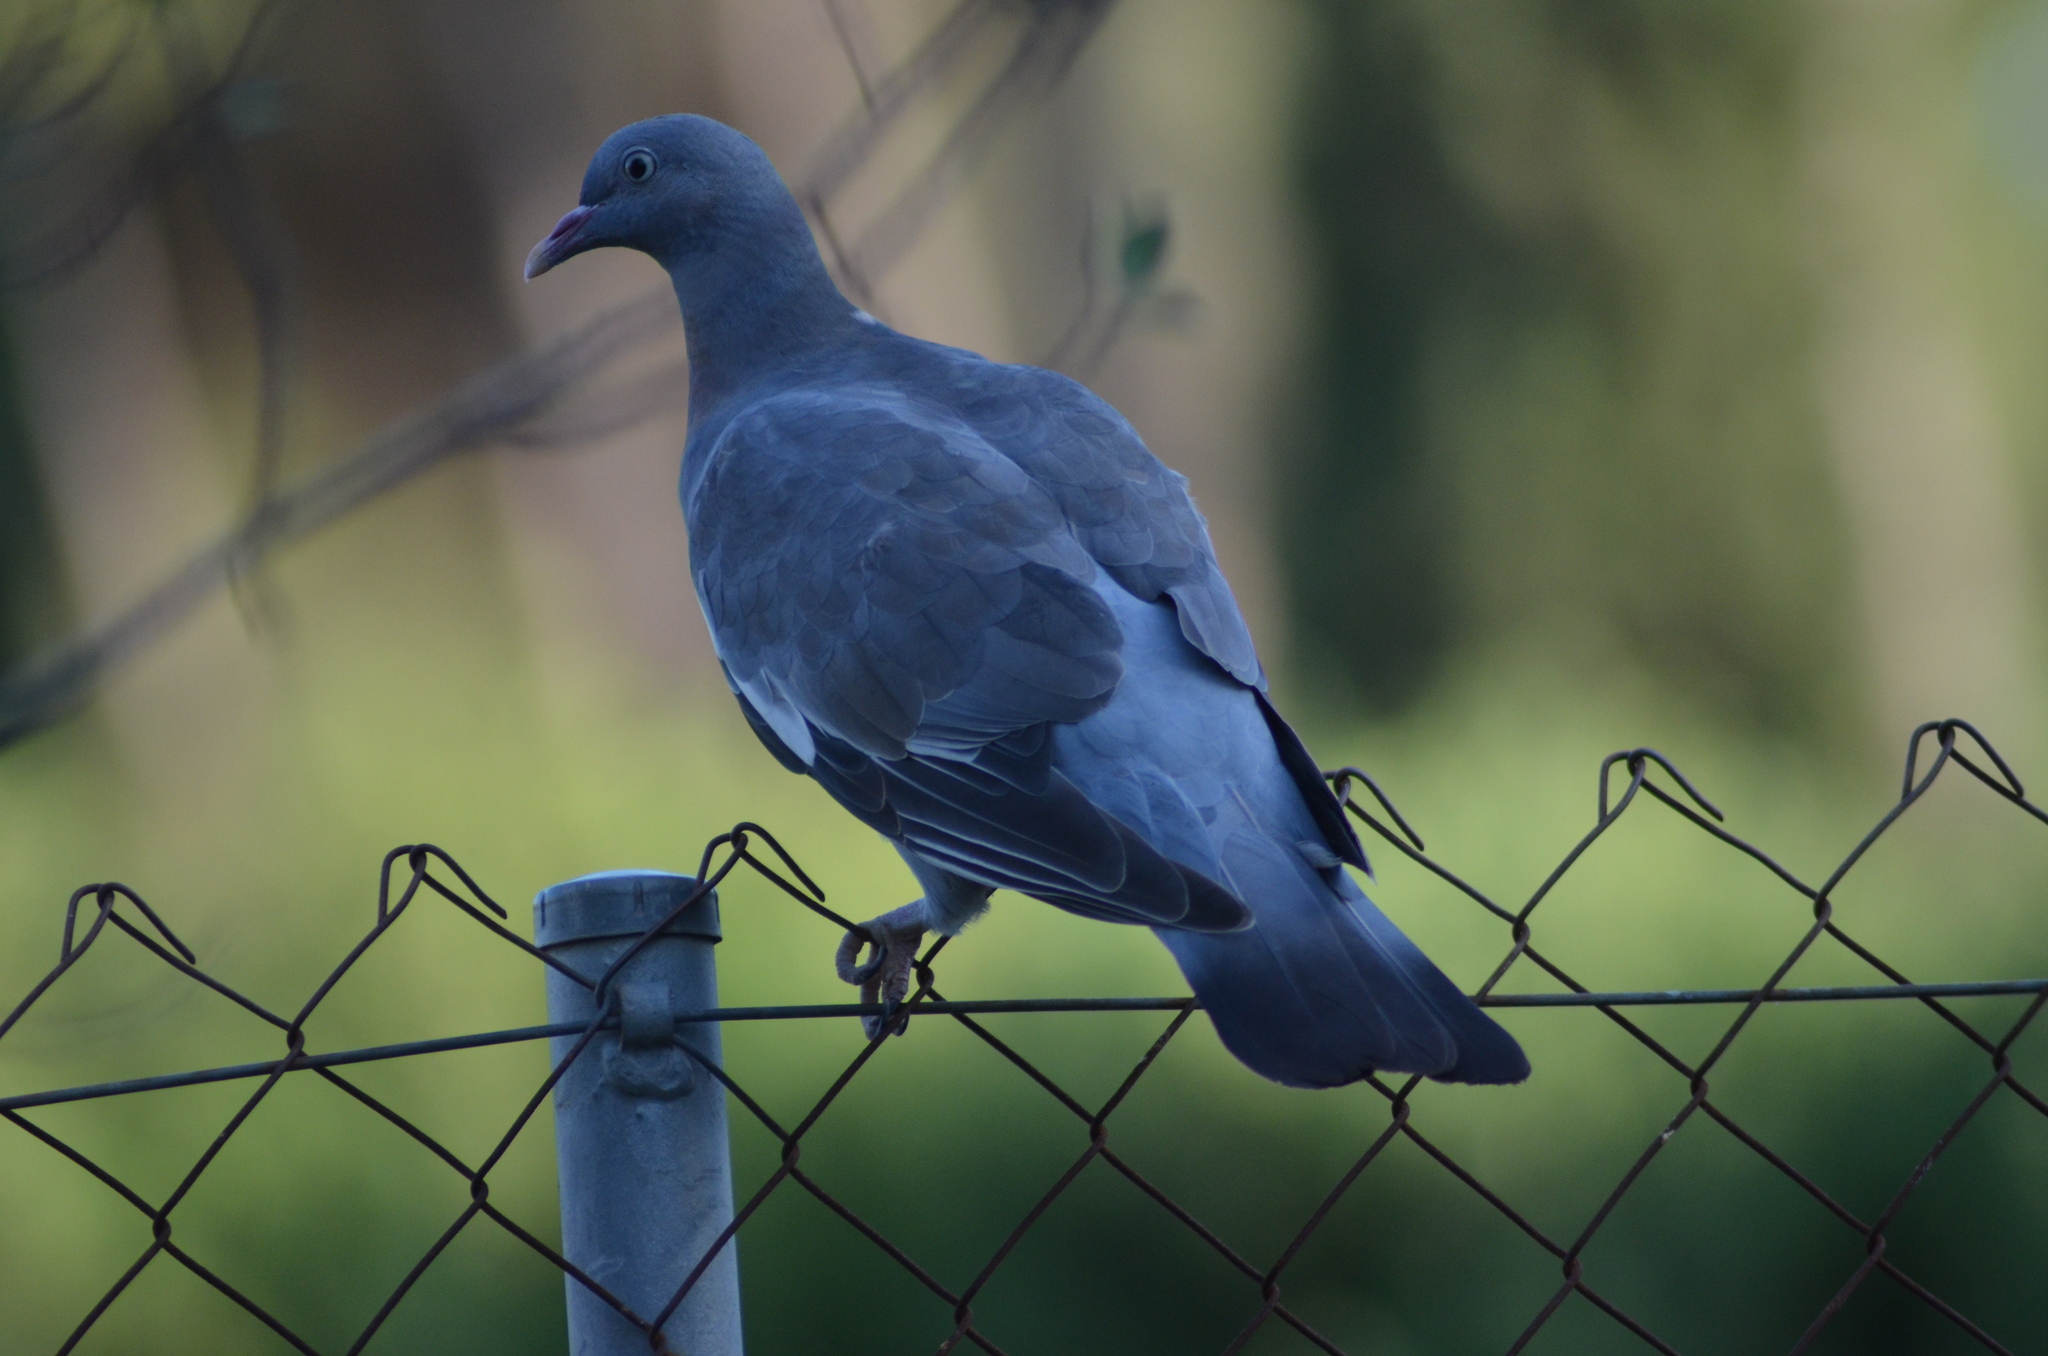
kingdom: Animalia
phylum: Chordata
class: Aves
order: Columbiformes
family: Columbidae
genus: Columba
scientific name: Columba livia
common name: Rock pigeon
